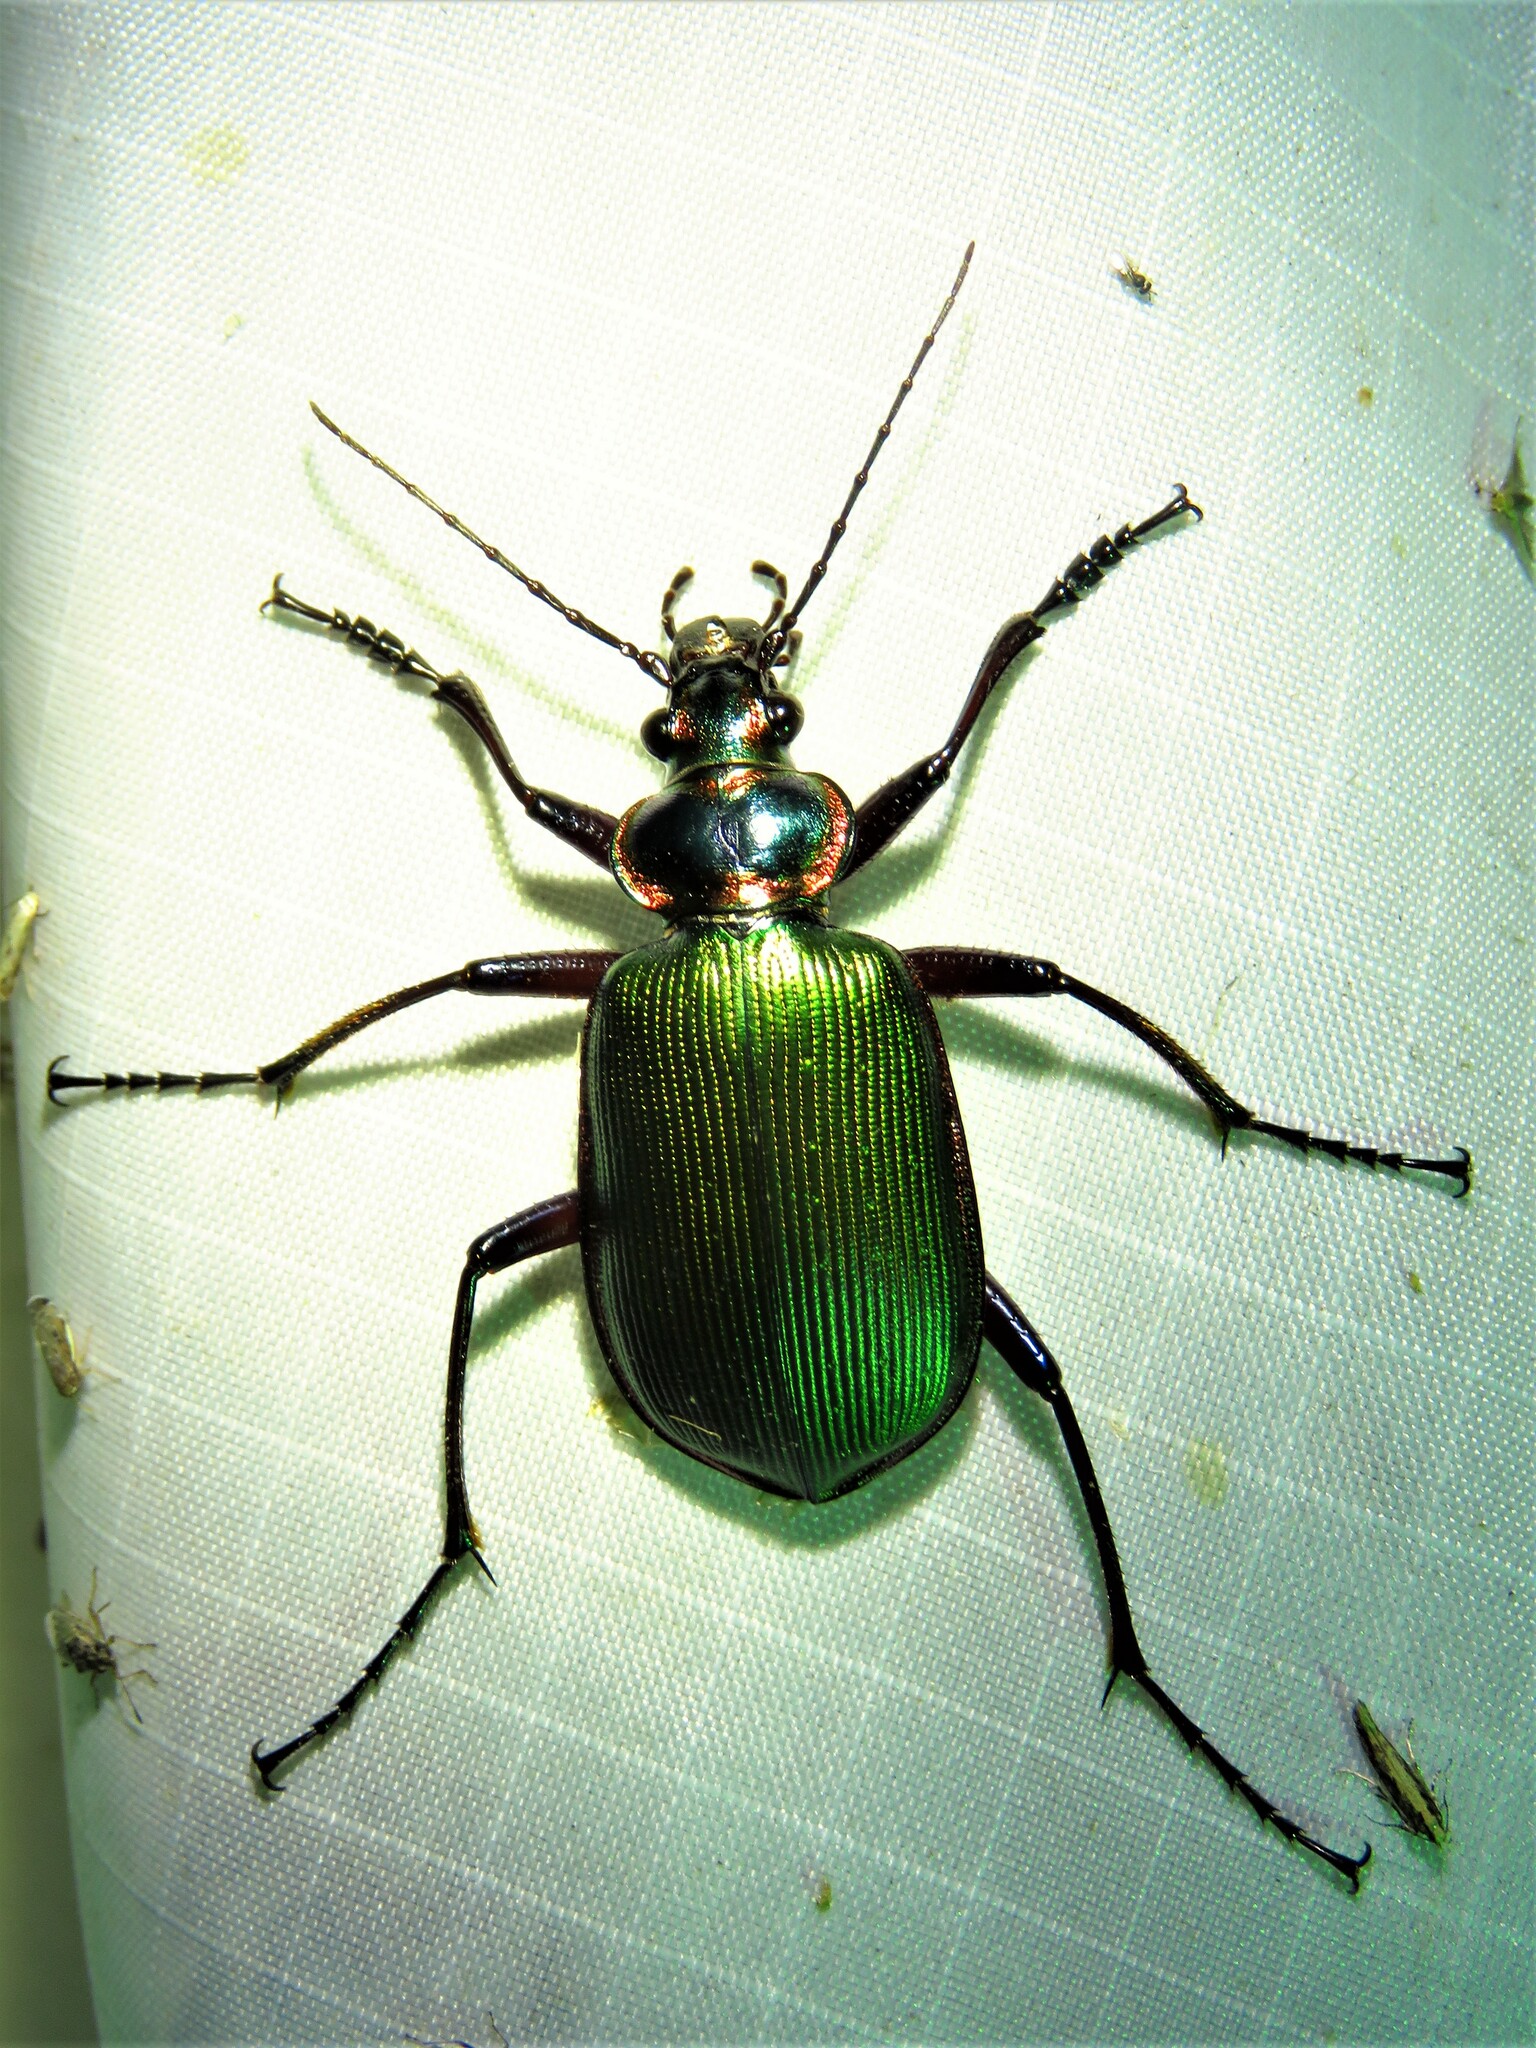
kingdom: Animalia
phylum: Arthropoda
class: Insecta
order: Coleoptera
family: Carabidae
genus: Calosoma
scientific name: Calosoma scrutator
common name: Fiery searcher beetle
